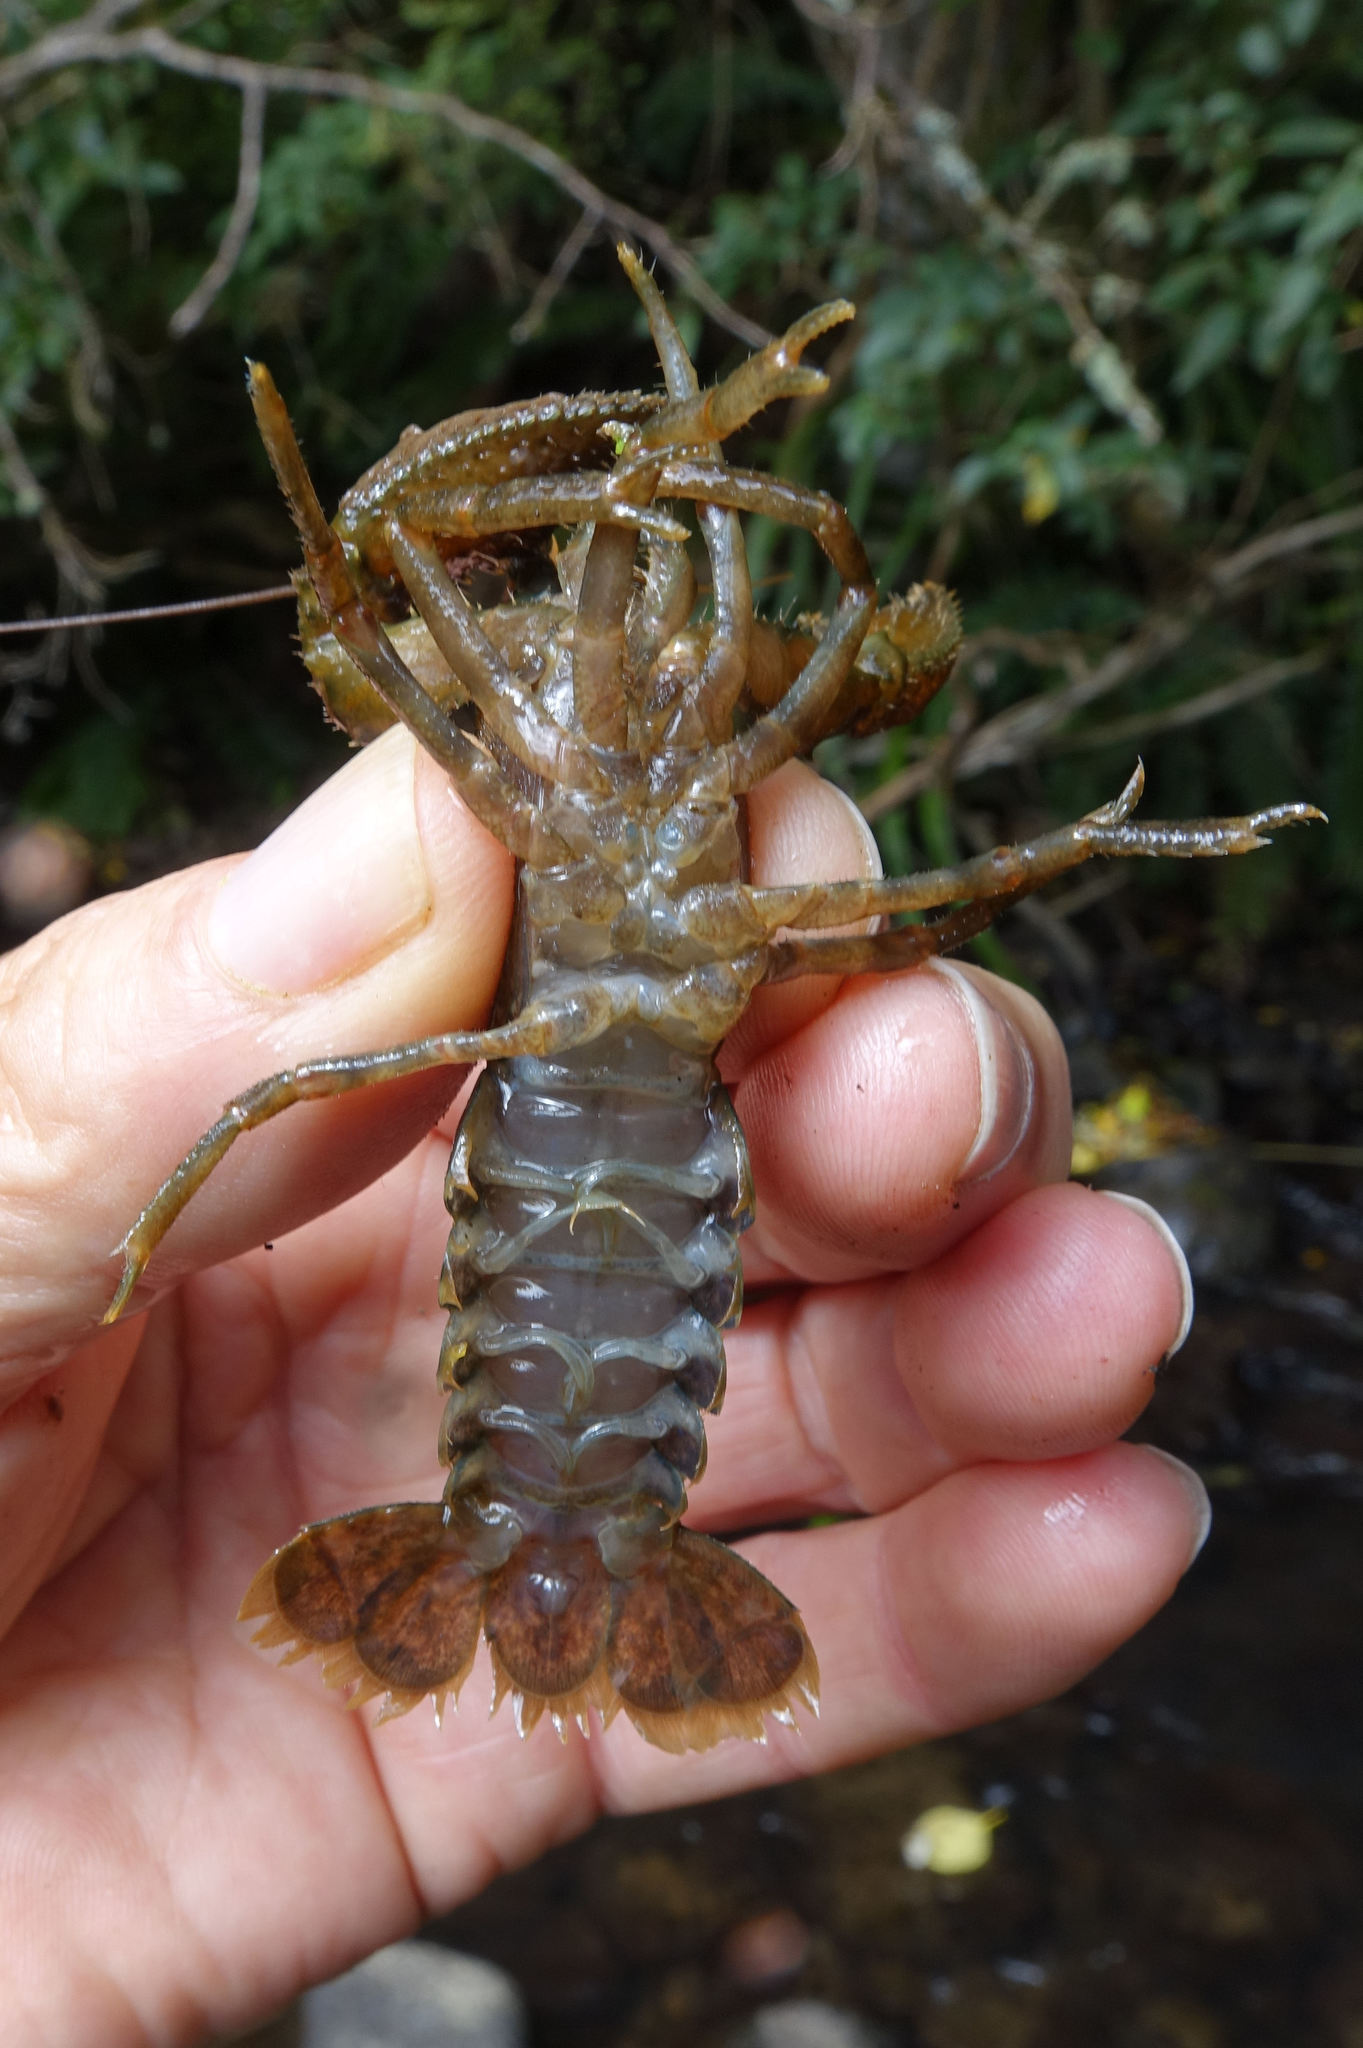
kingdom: Animalia
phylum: Arthropoda
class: Malacostraca
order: Decapoda
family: Parastacidae
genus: Paranephrops
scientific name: Paranephrops zealandicus
